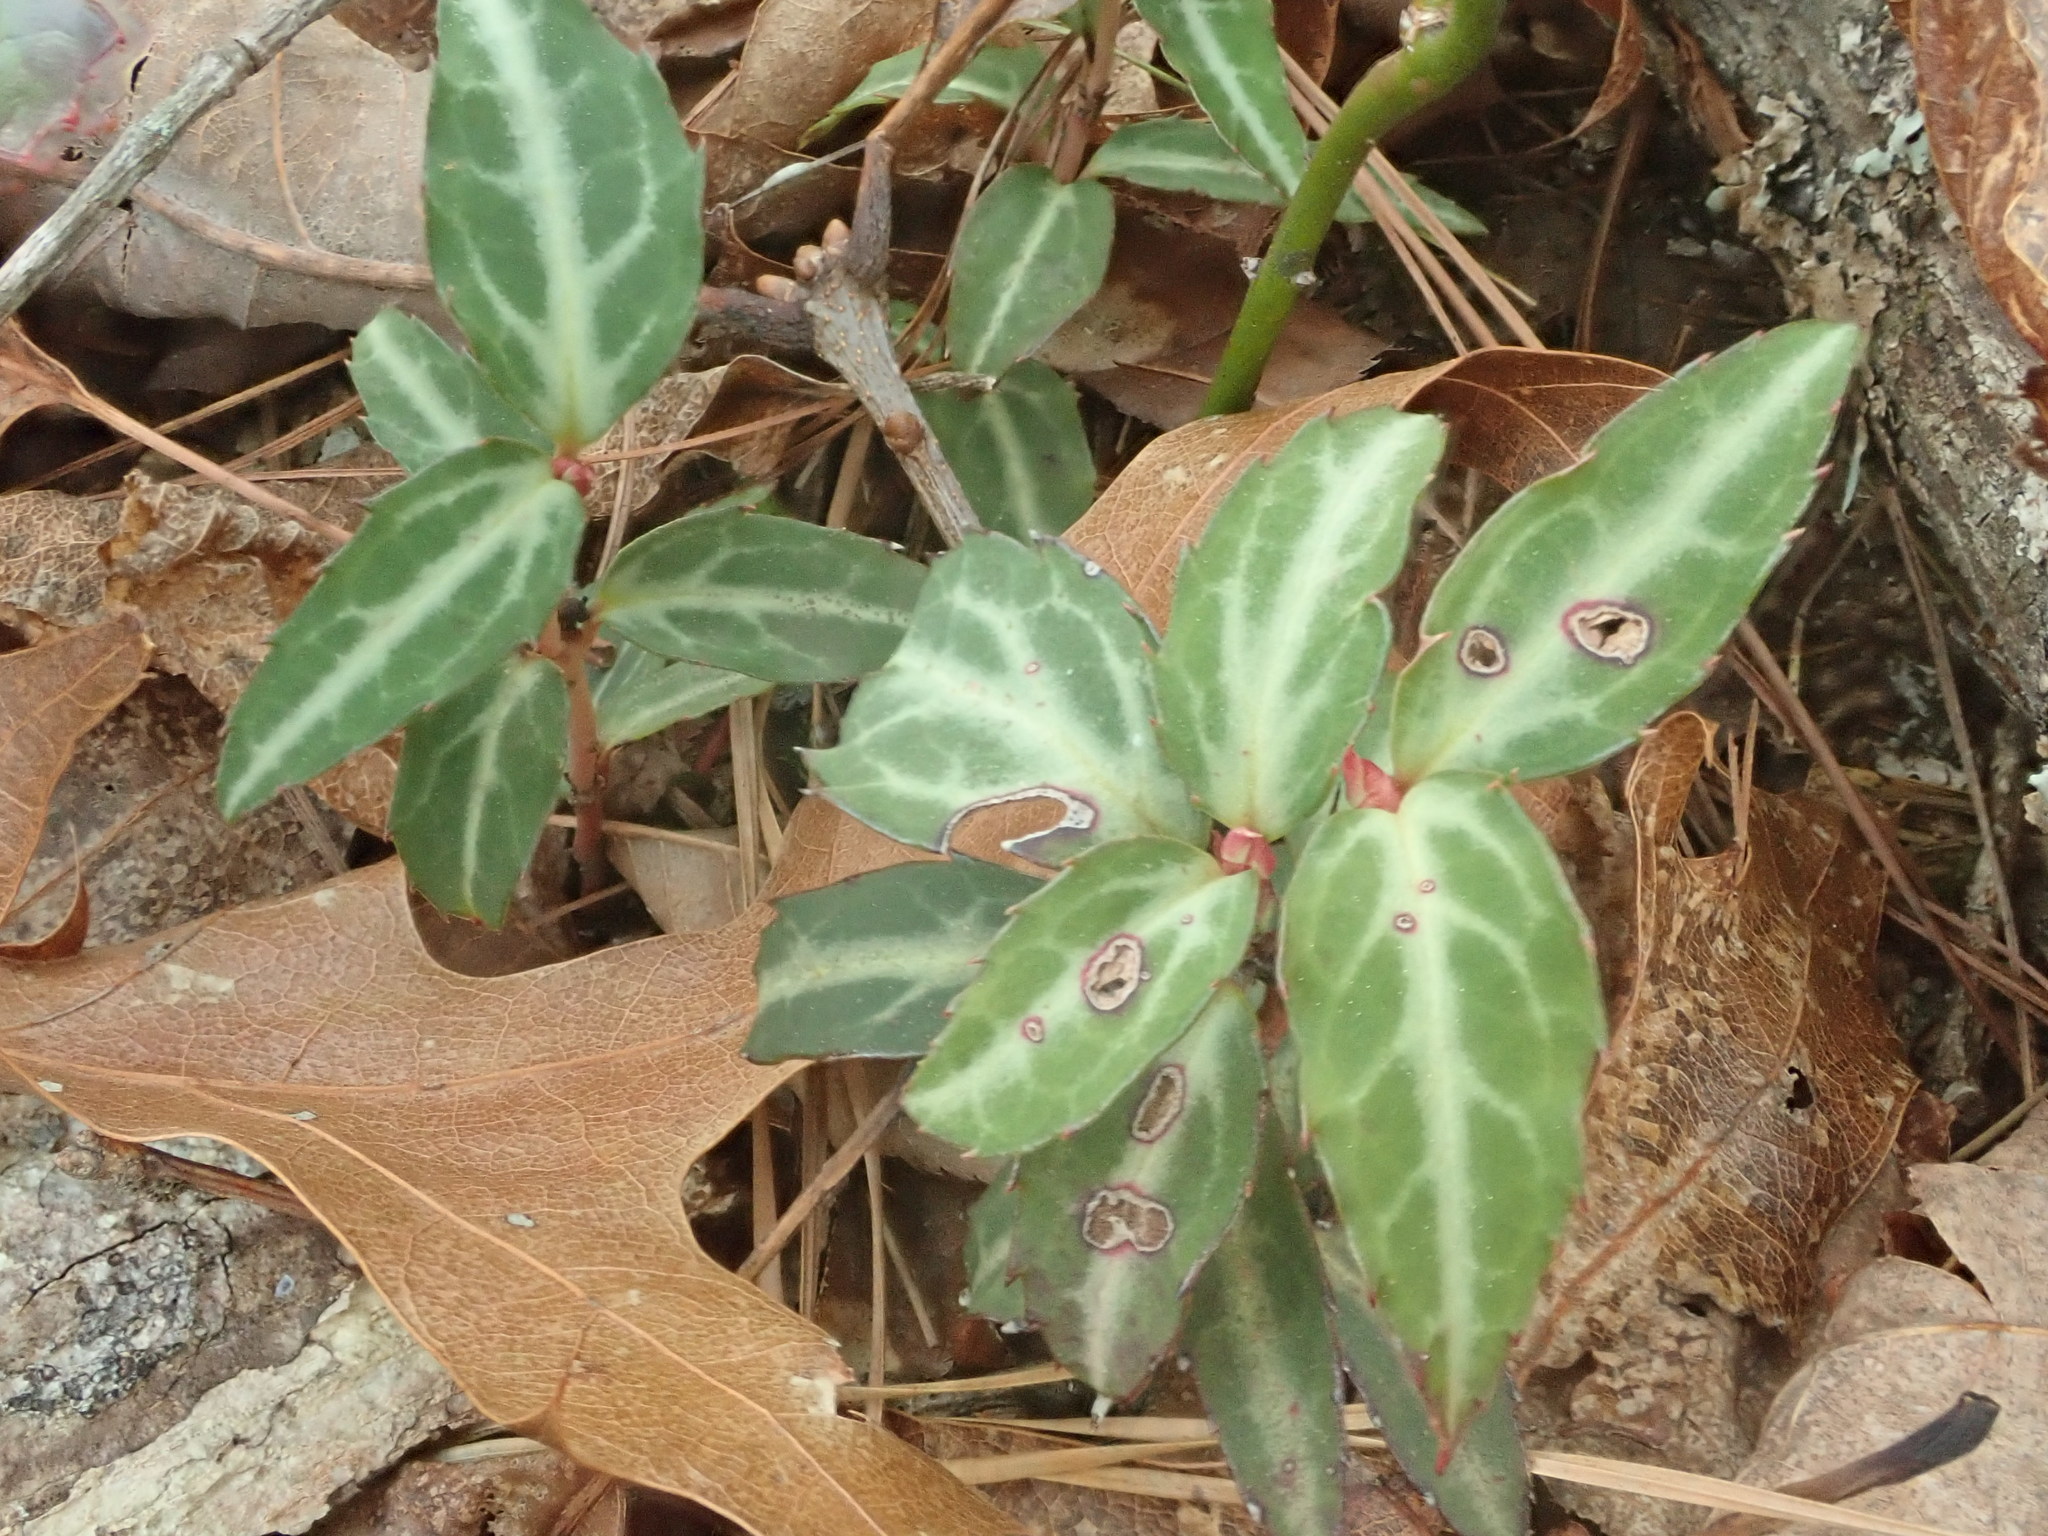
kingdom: Plantae
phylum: Tracheophyta
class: Magnoliopsida
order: Ericales
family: Ericaceae
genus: Chimaphila
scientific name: Chimaphila maculata
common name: Spotted pipsissewa
